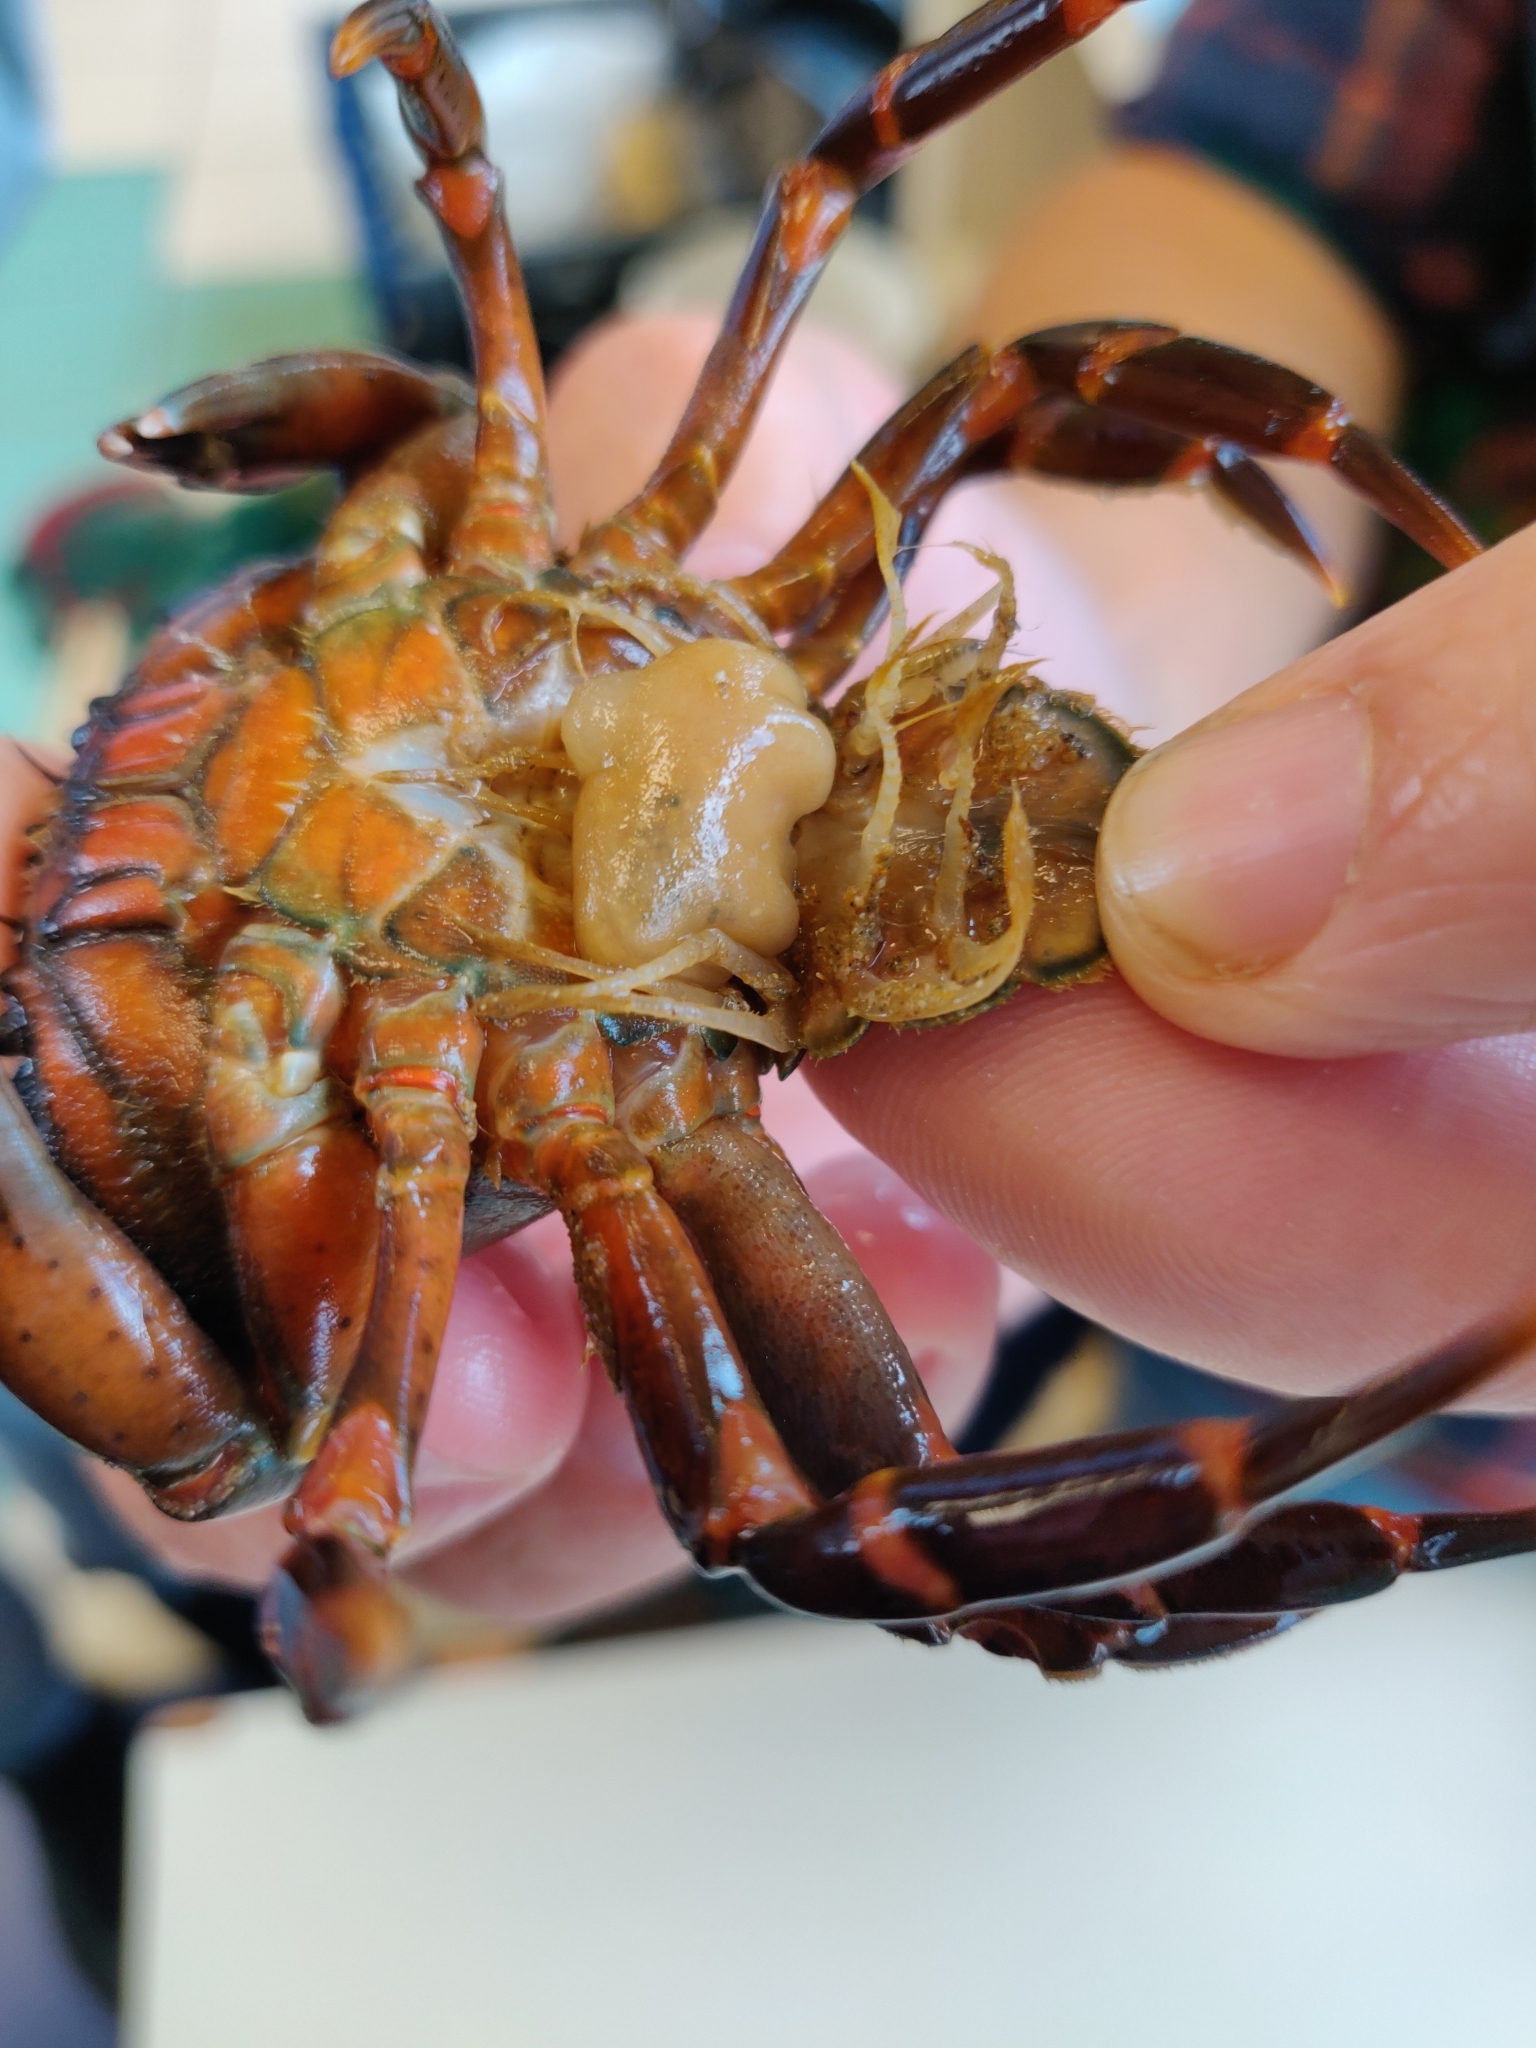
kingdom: Animalia
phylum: Arthropoda
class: Maxillopoda
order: Kentrogonida
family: Sacculinidae
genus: Sacculina
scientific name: Sacculina carcini
